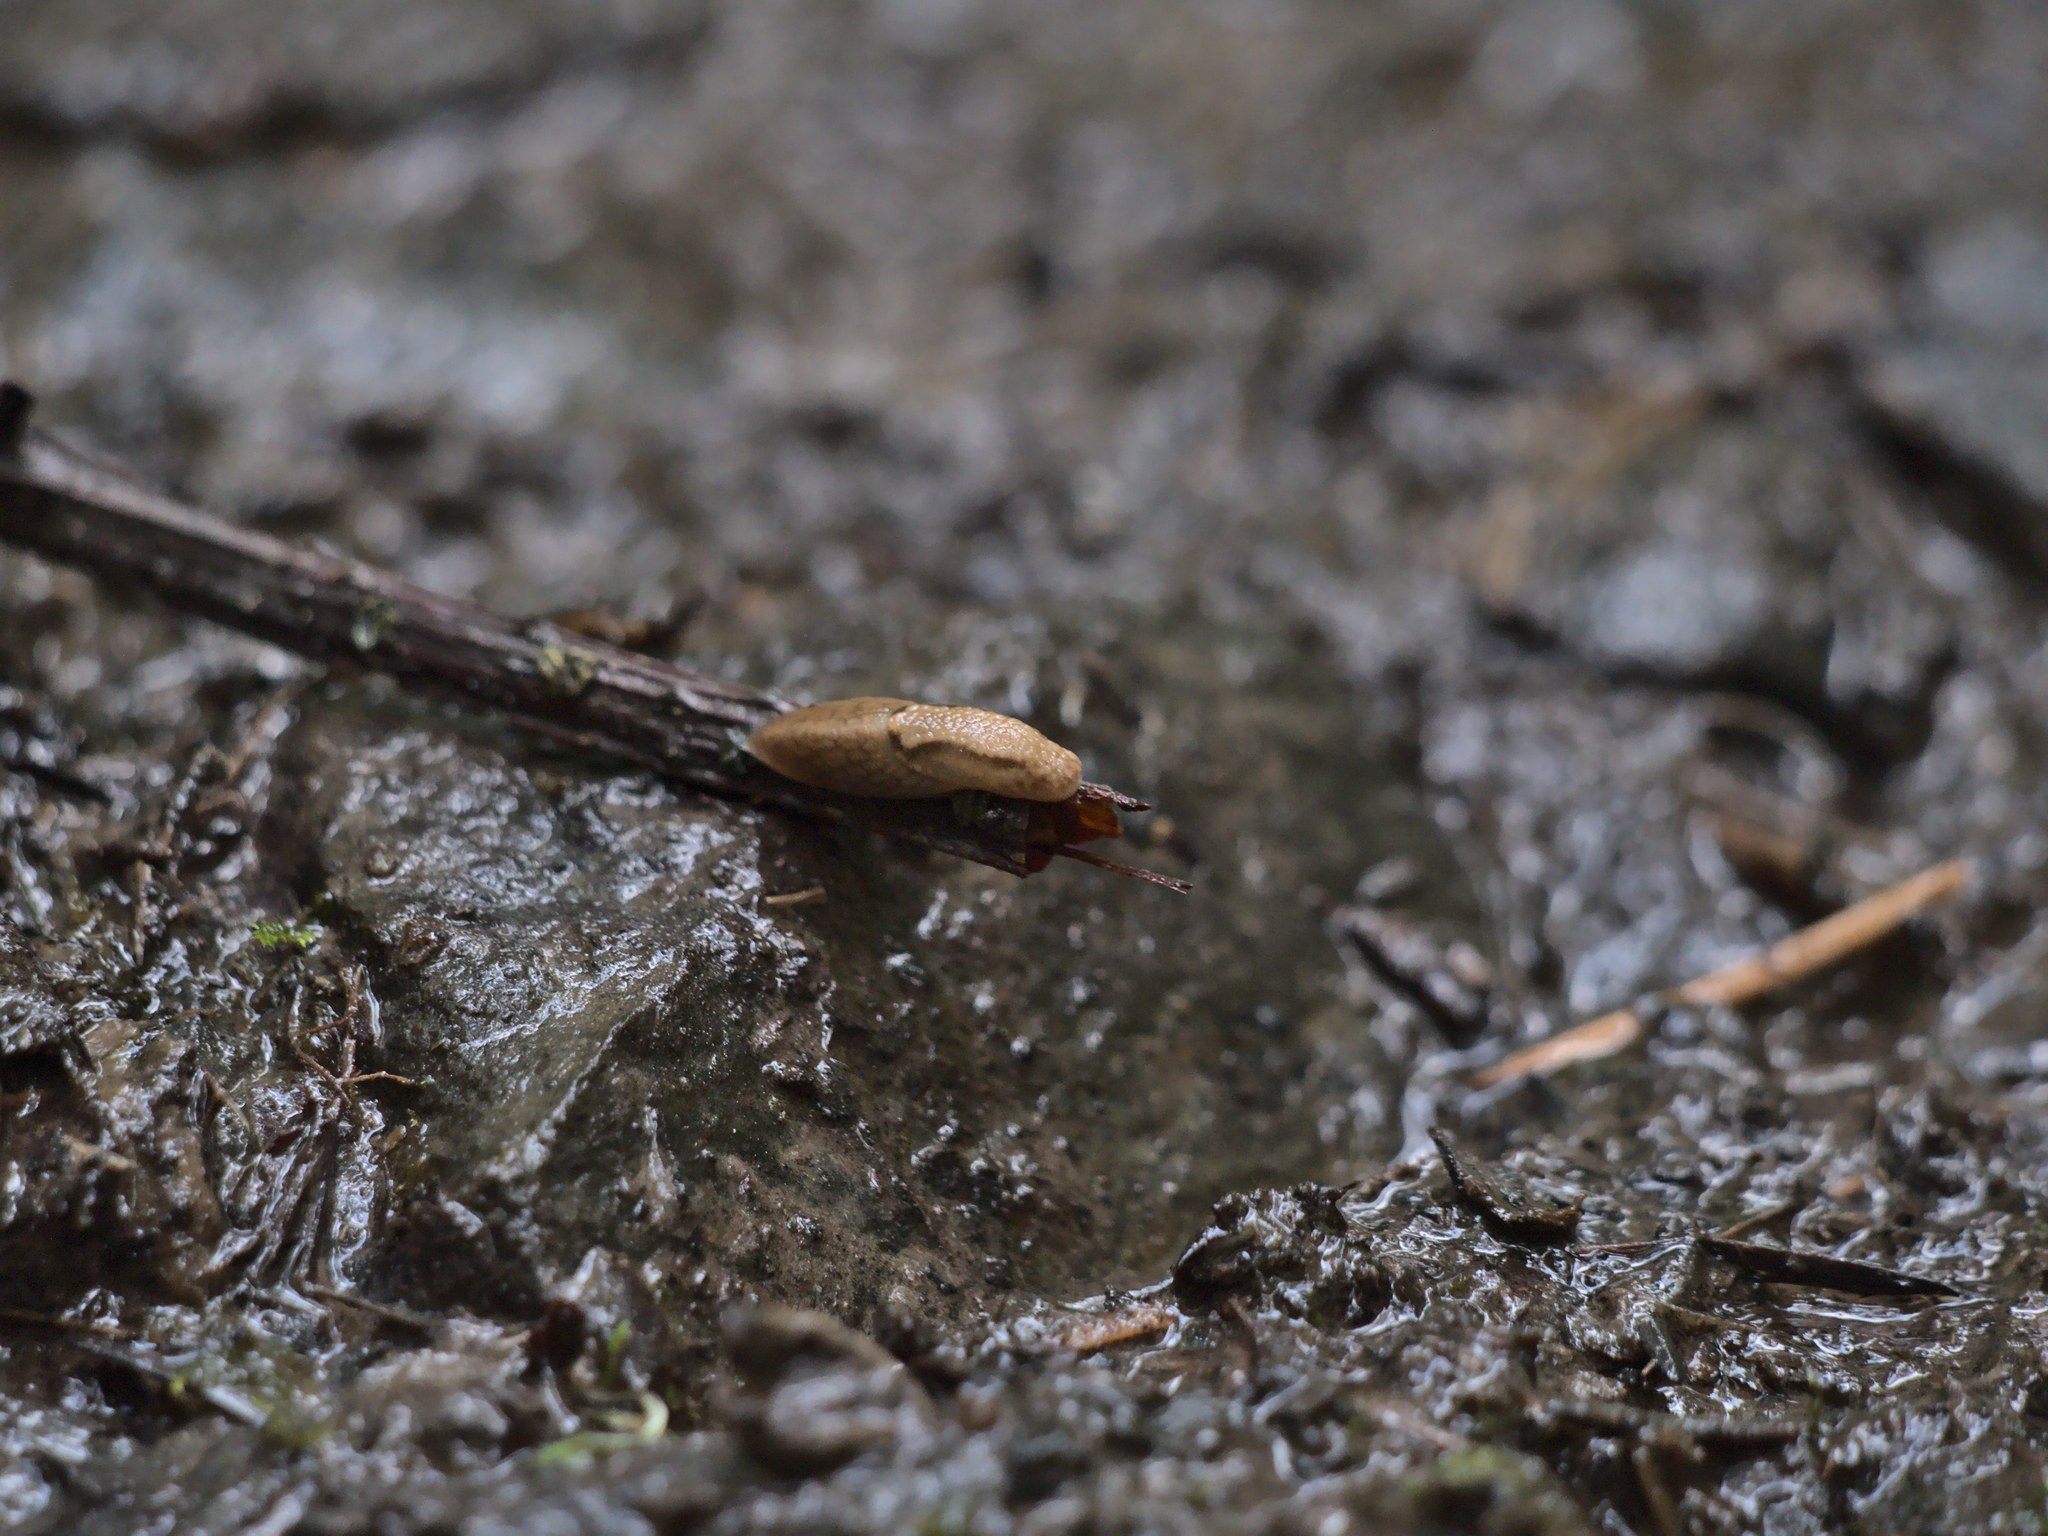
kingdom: Animalia
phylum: Mollusca
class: Gastropoda
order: Stylommatophora
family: Ariolimacidae
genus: Prophysaon
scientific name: Prophysaon andersonii
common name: Reticulate taildropper
